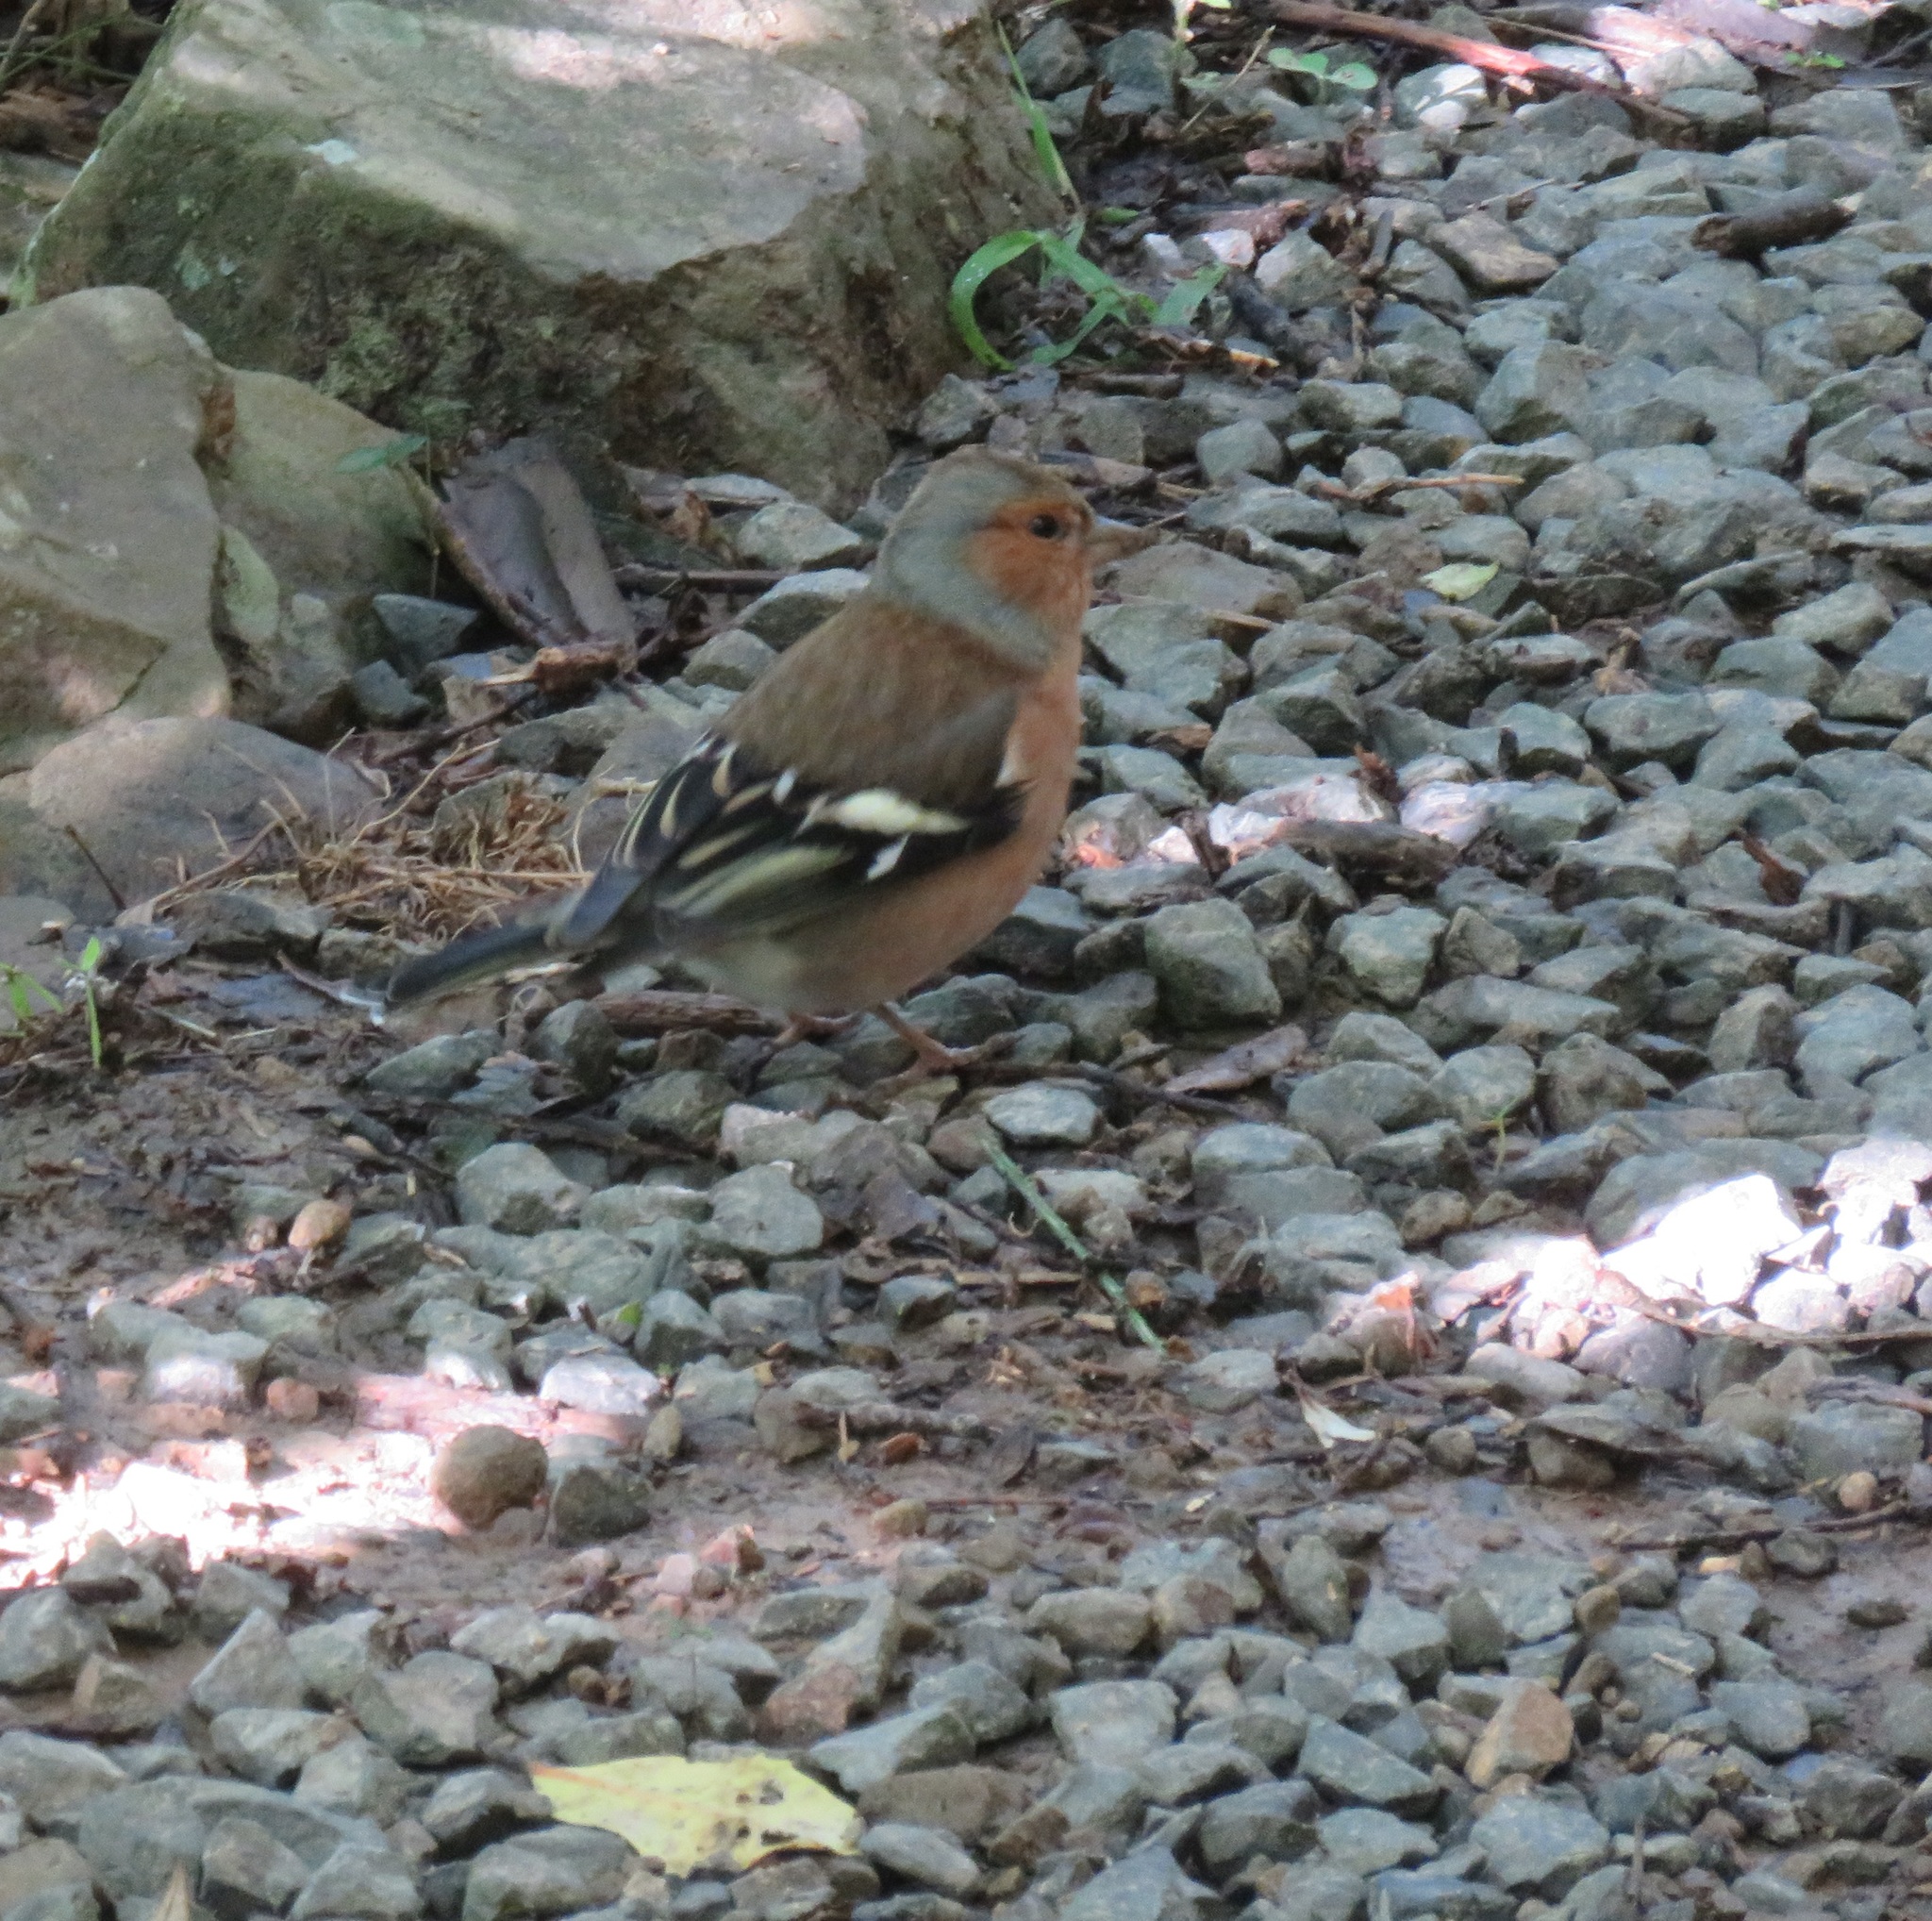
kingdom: Animalia
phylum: Chordata
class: Aves
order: Passeriformes
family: Fringillidae
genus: Fringilla
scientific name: Fringilla coelebs
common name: Common chaffinch
